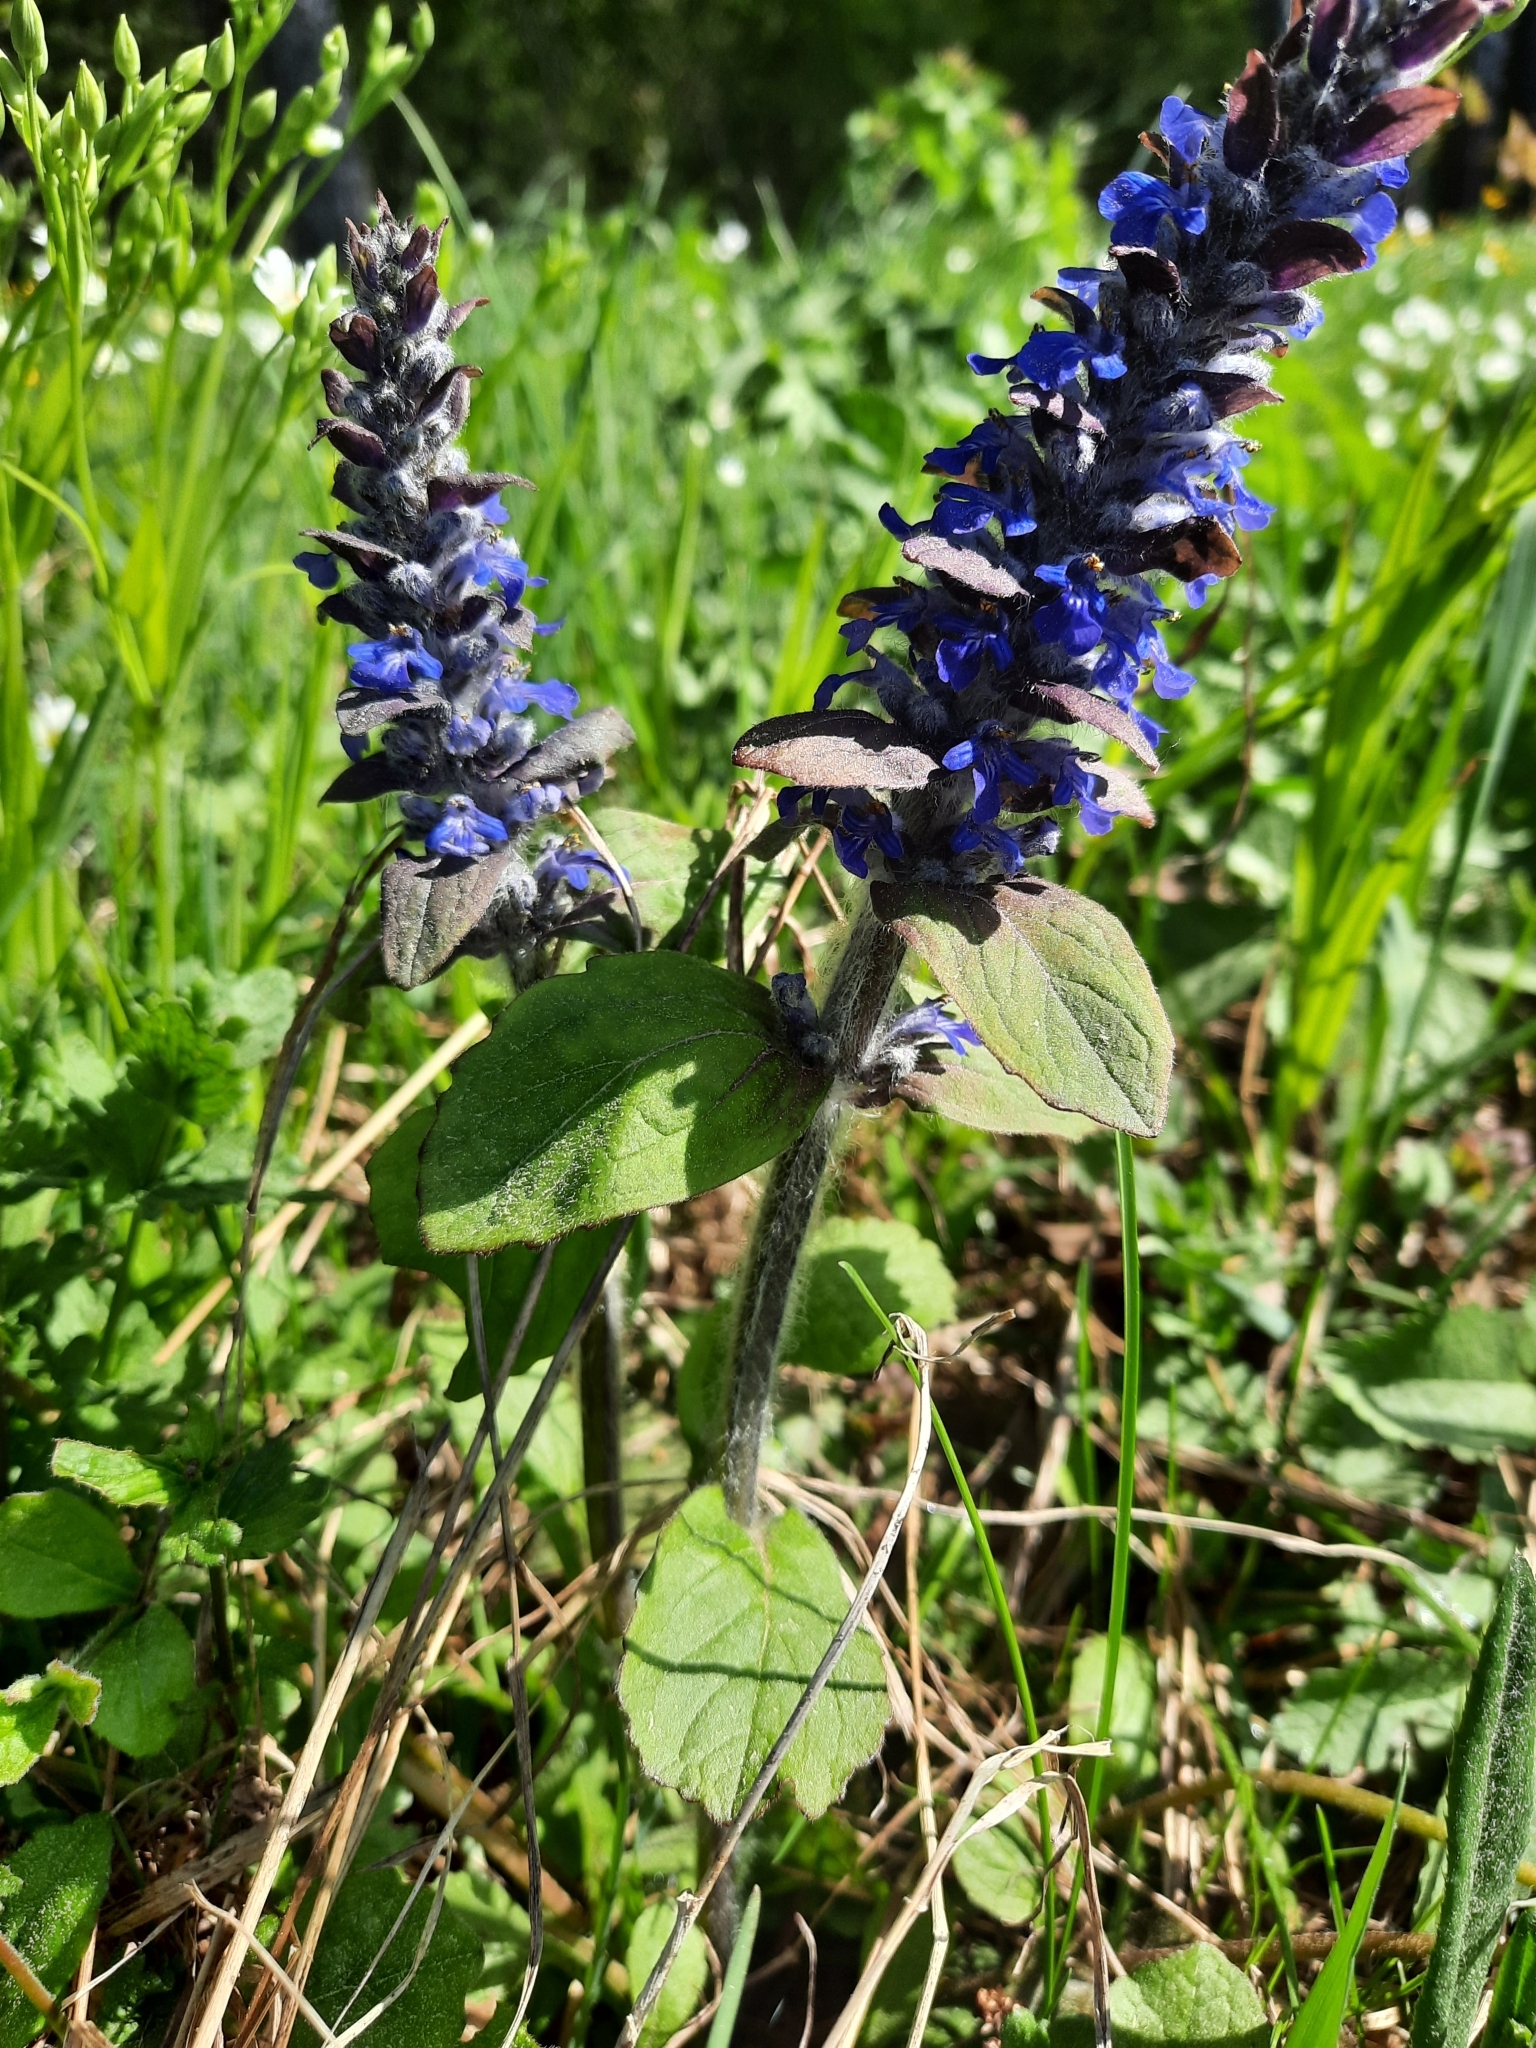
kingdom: Plantae
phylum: Tracheophyta
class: Magnoliopsida
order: Lamiales
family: Lamiaceae
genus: Ajuga
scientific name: Ajuga reptans
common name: Bugle
